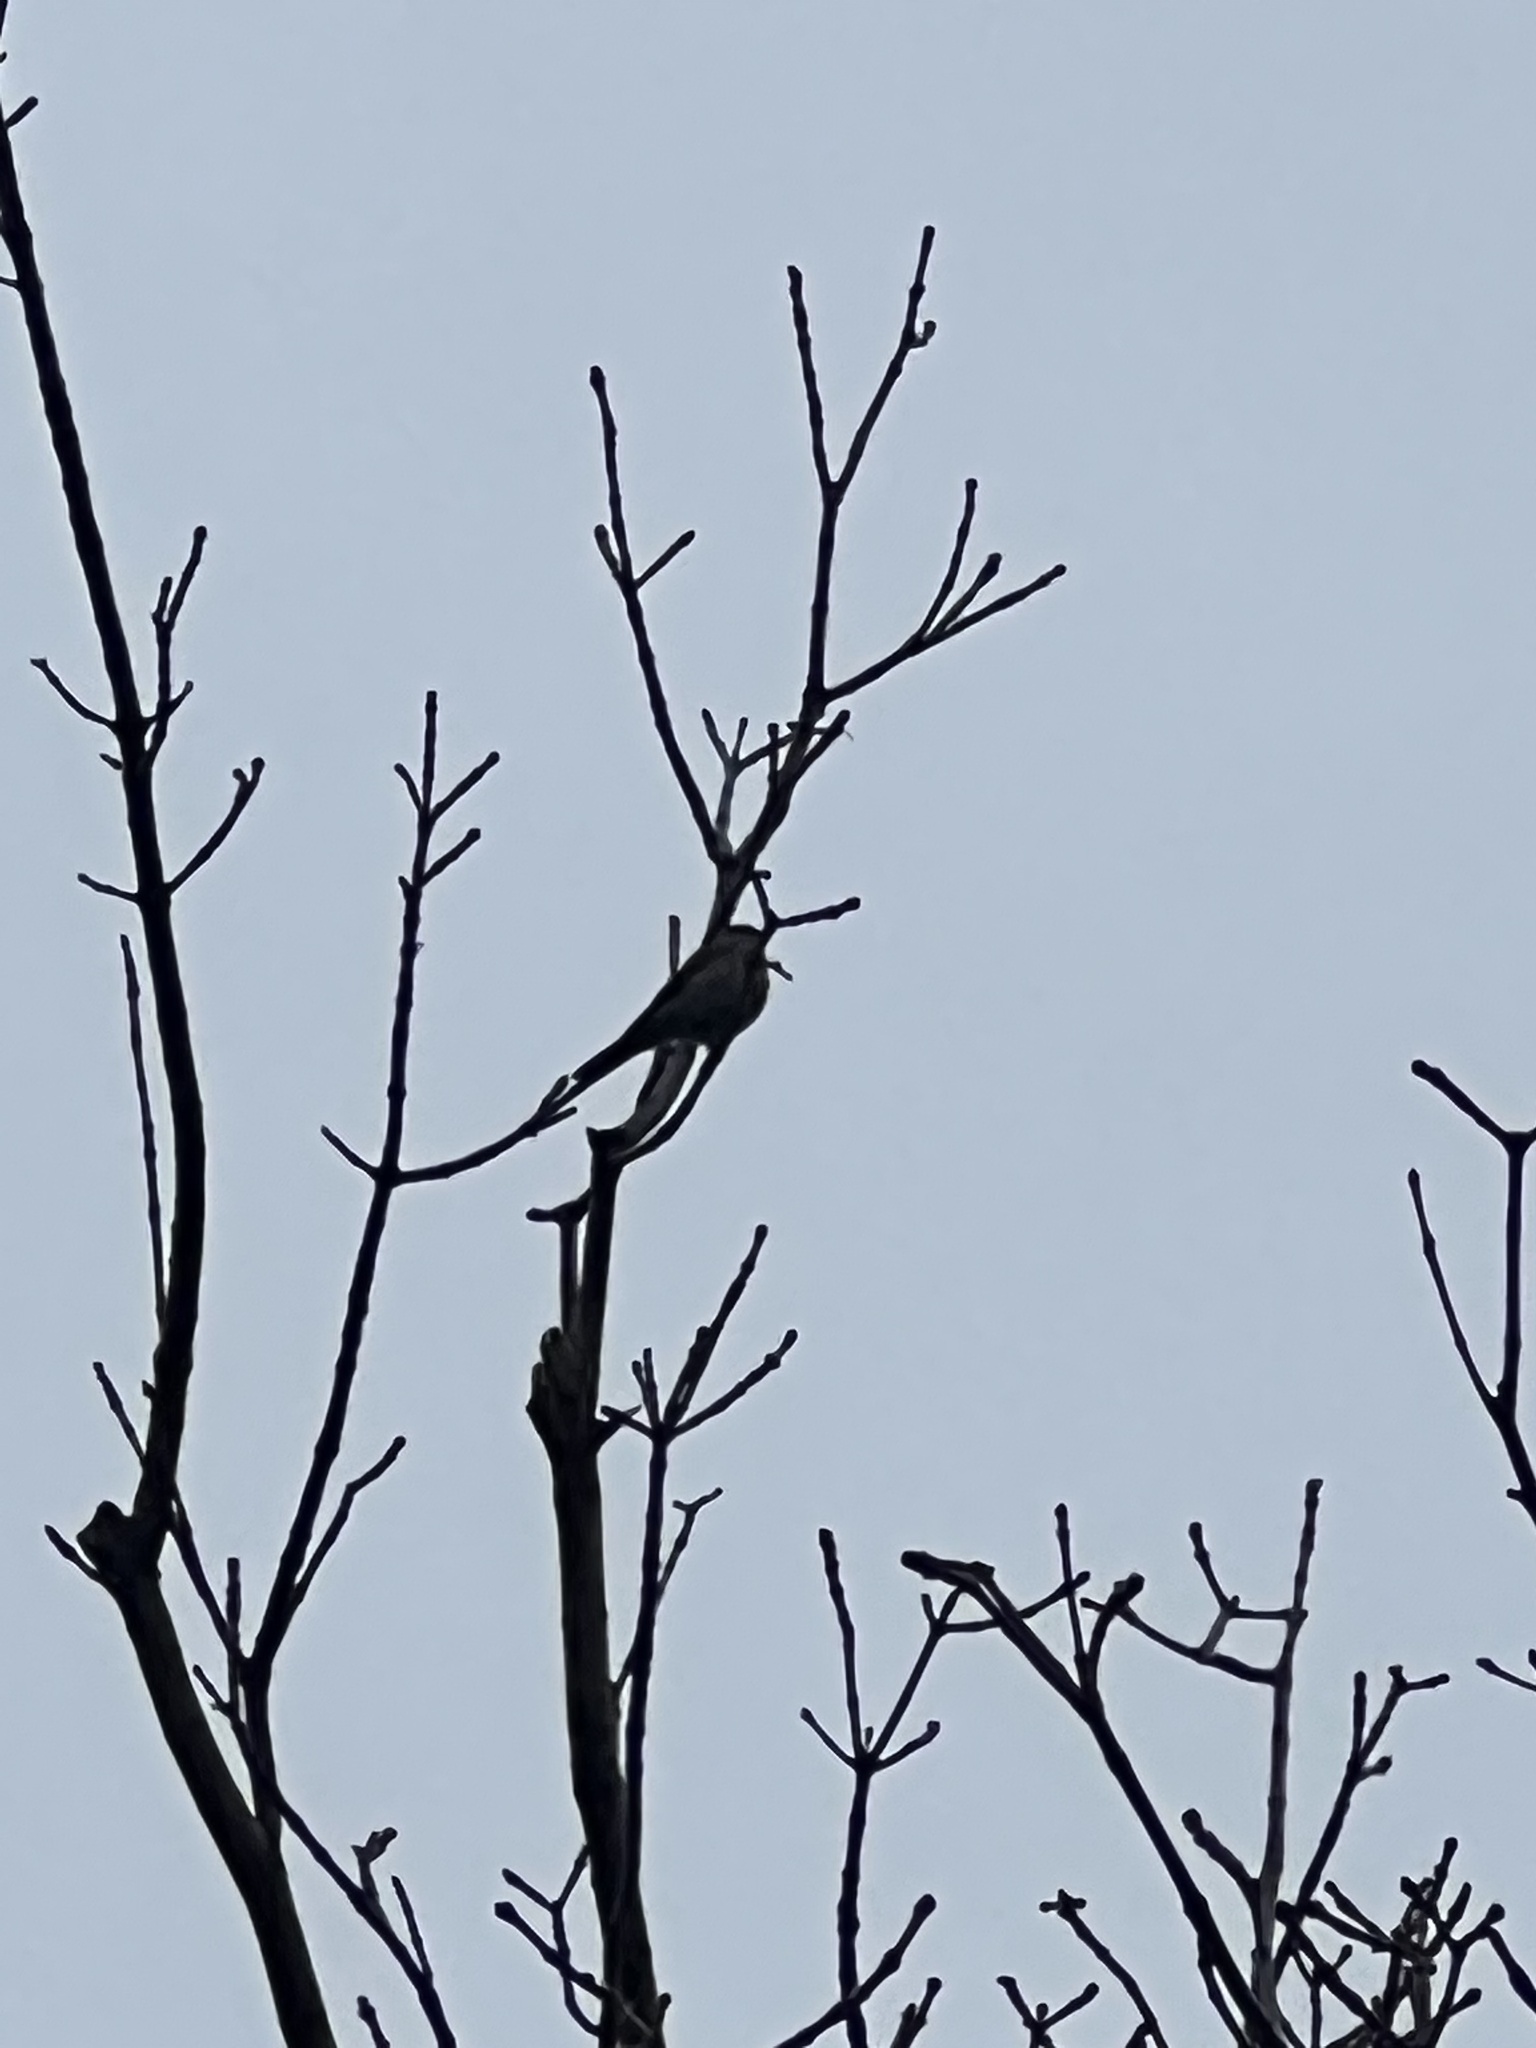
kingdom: Animalia
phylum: Chordata
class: Aves
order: Passeriformes
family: Turdidae
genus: Myadestes
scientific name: Myadestes townsendi
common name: Townsend's solitaire
